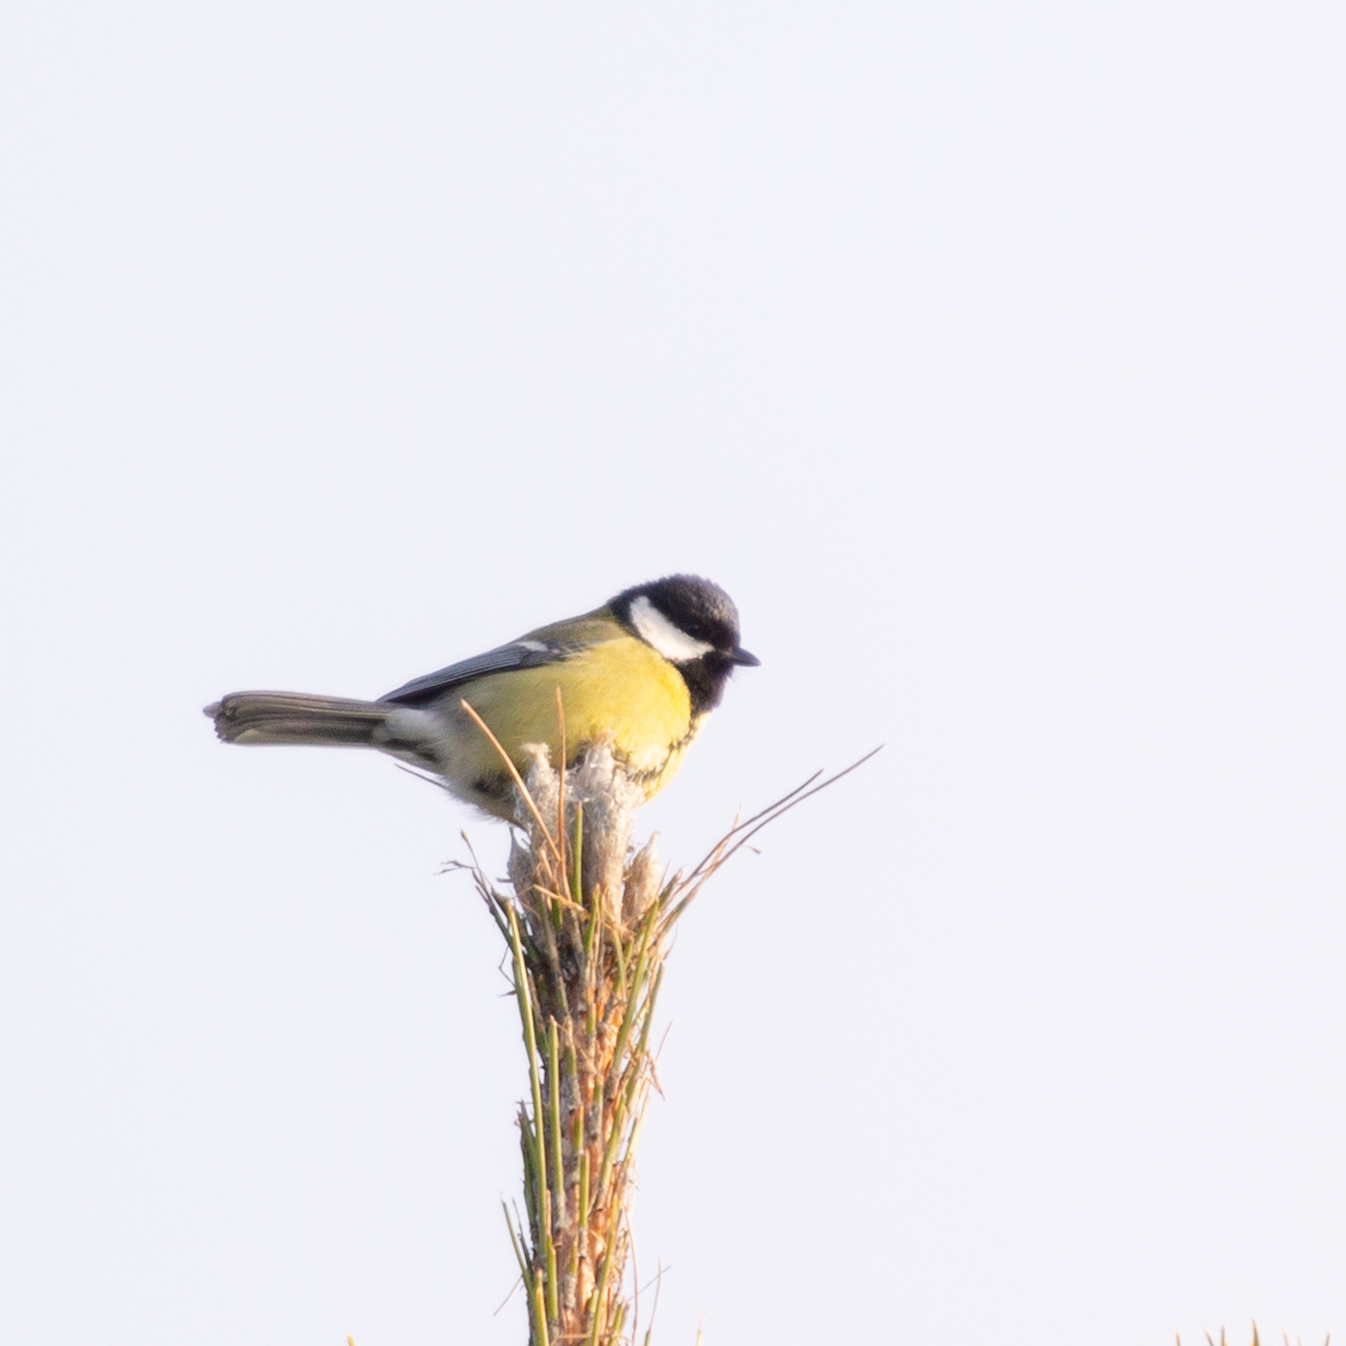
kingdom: Animalia
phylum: Chordata
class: Aves
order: Passeriformes
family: Paridae
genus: Parus
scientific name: Parus major
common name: Great tit
